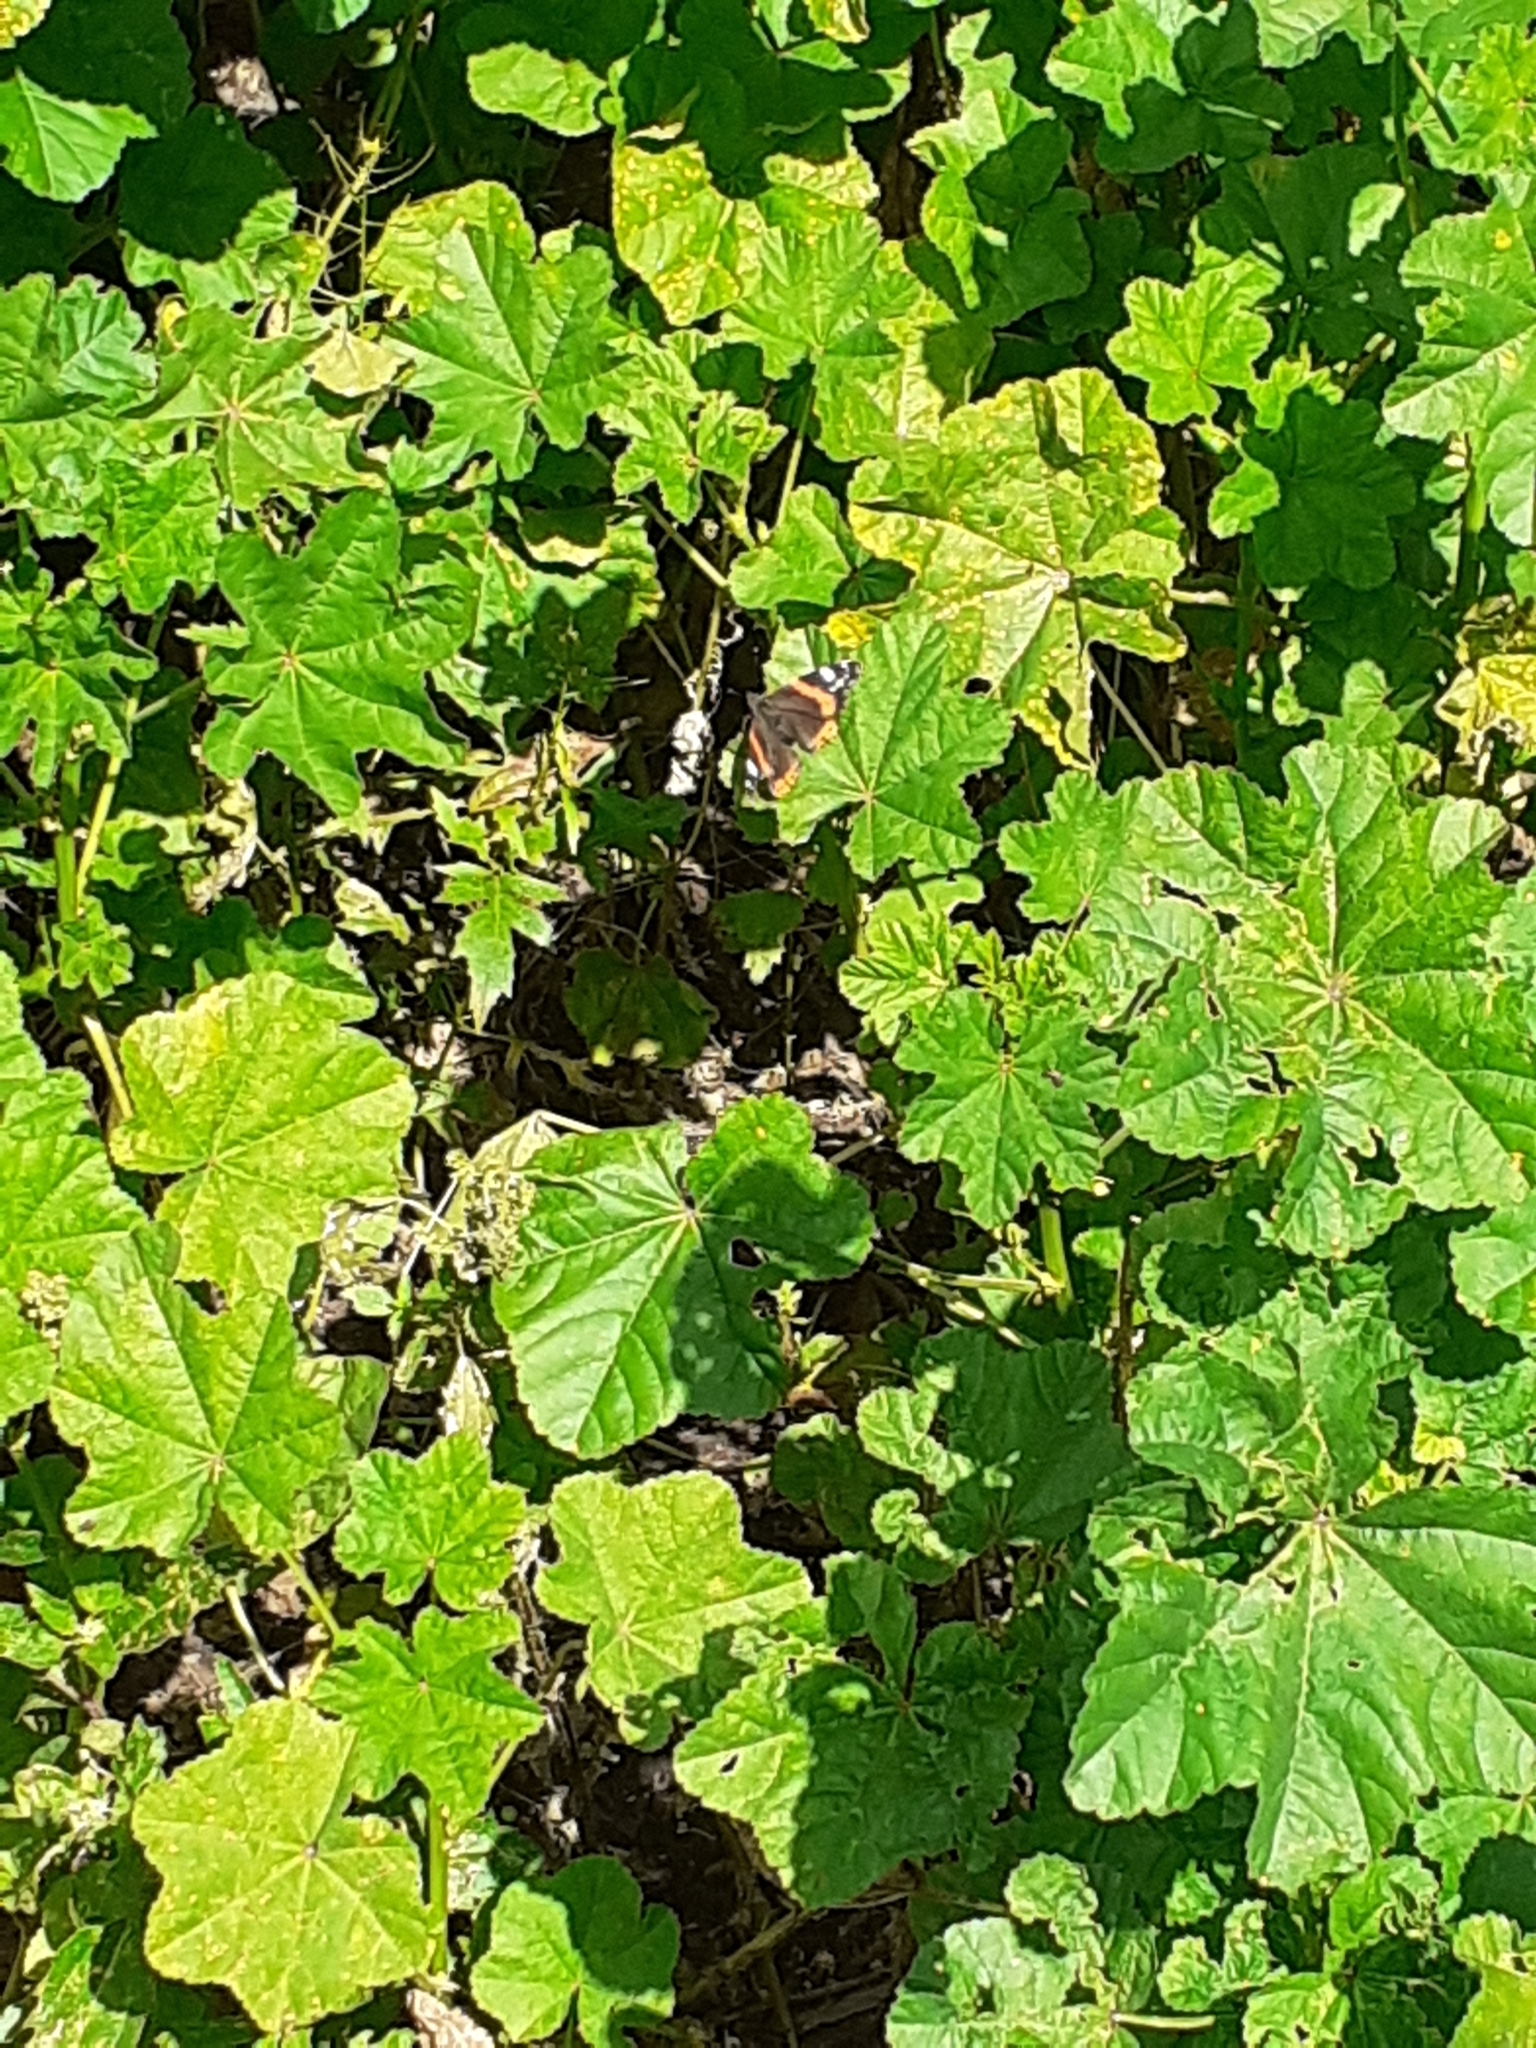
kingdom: Animalia
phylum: Arthropoda
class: Insecta
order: Lepidoptera
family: Nymphalidae
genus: Vanessa
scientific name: Vanessa atalanta
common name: Red admiral
